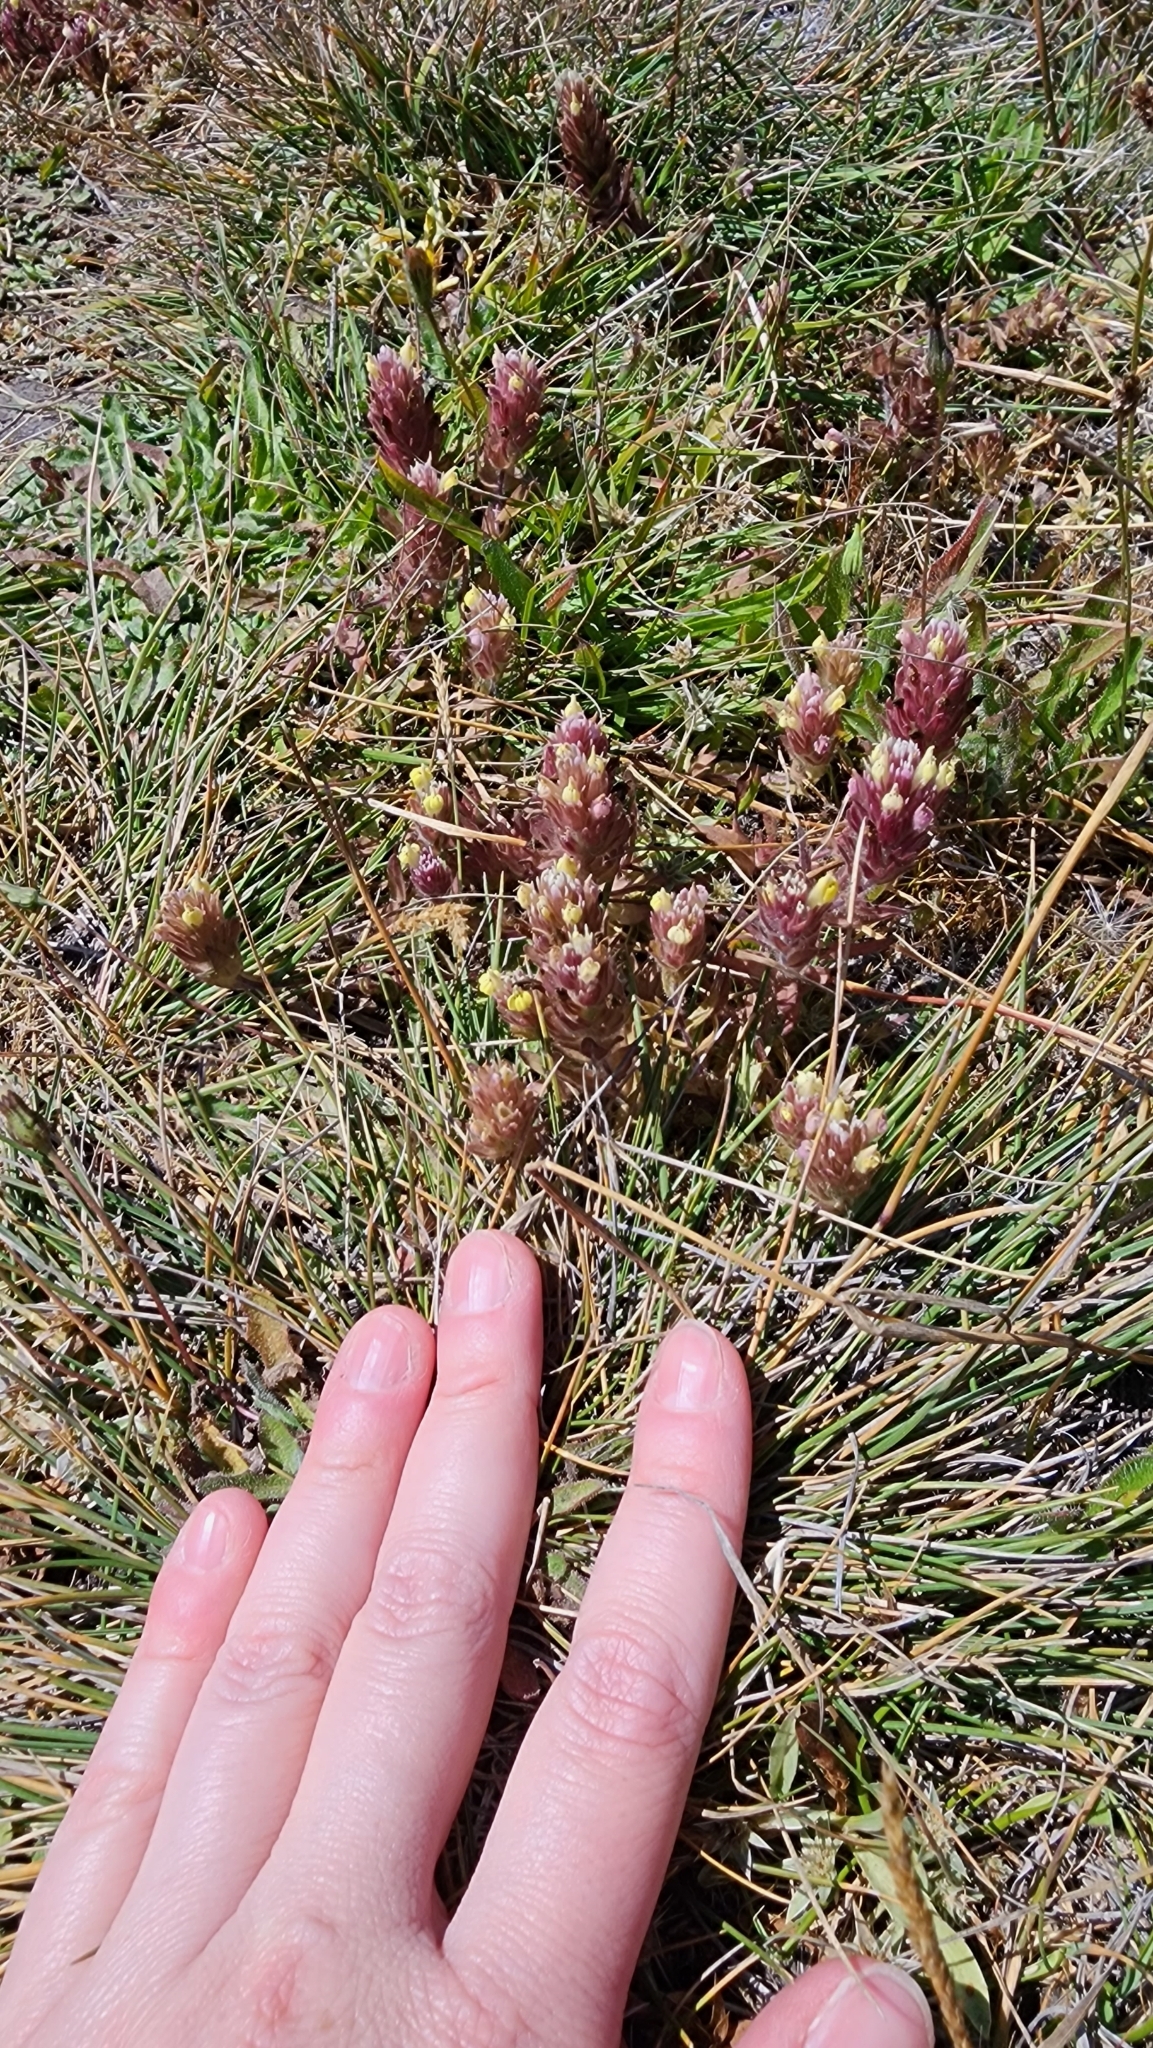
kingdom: Plantae
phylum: Tracheophyta
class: Magnoliopsida
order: Lamiales
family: Orobanchaceae
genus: Castilleja
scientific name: Castilleja ambigua
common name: Johnny-nip
